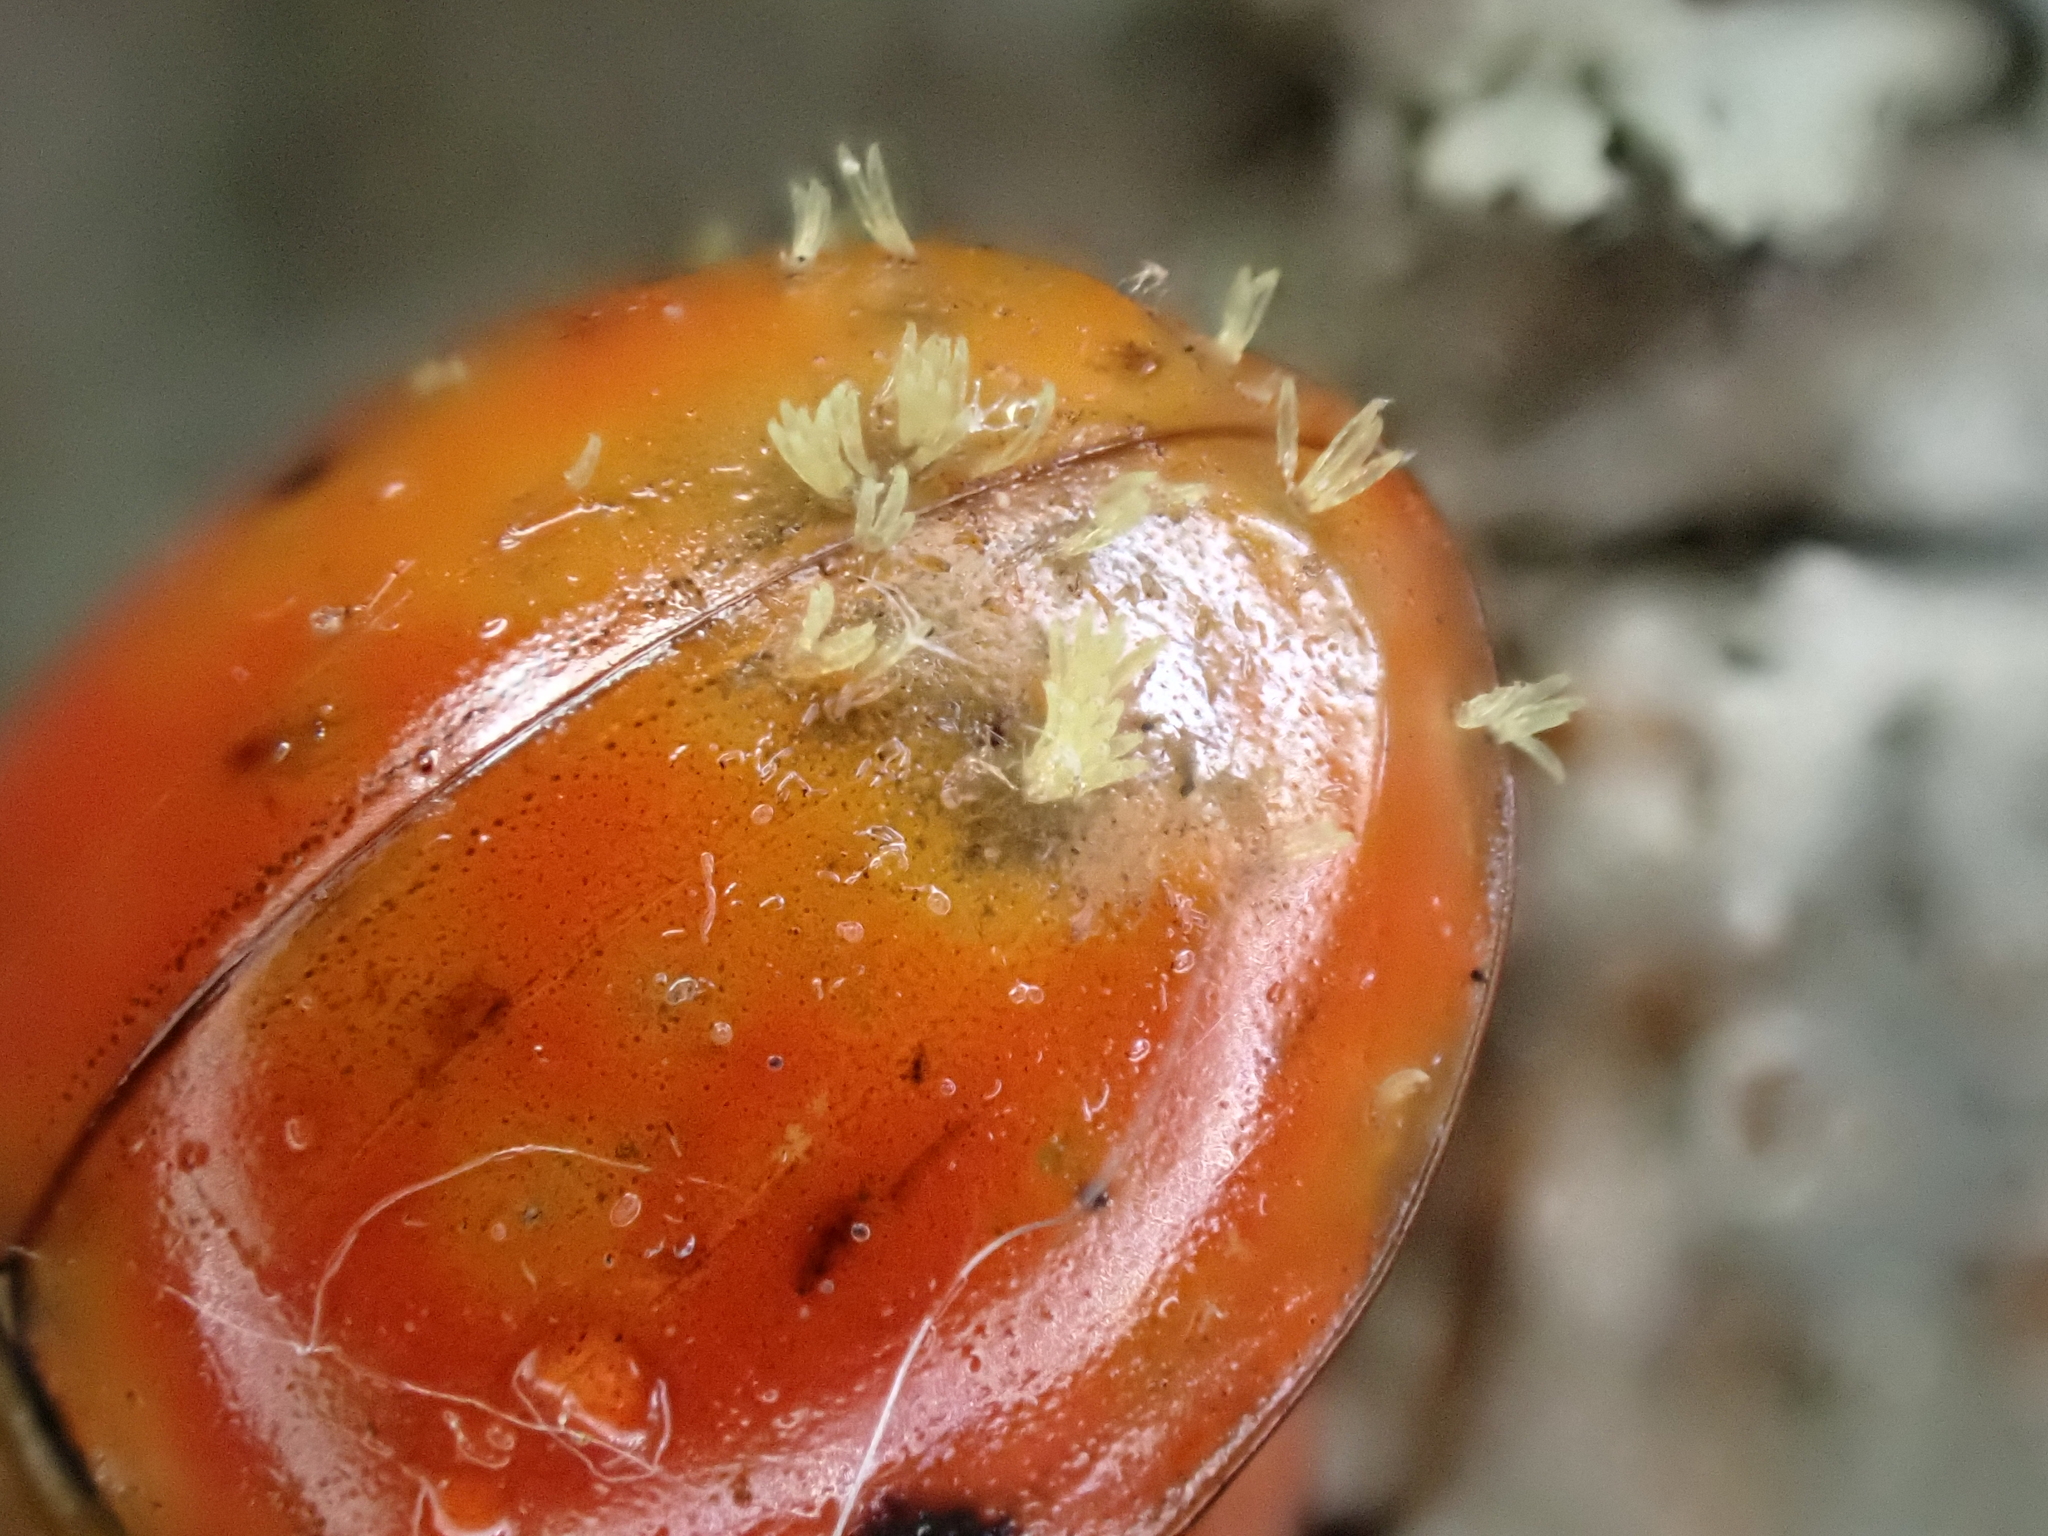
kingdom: Fungi
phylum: Ascomycota
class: Laboulbeniomycetes
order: Laboulbeniales
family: Laboulbeniaceae
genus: Hesperomyces
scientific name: Hesperomyces harmoniae
